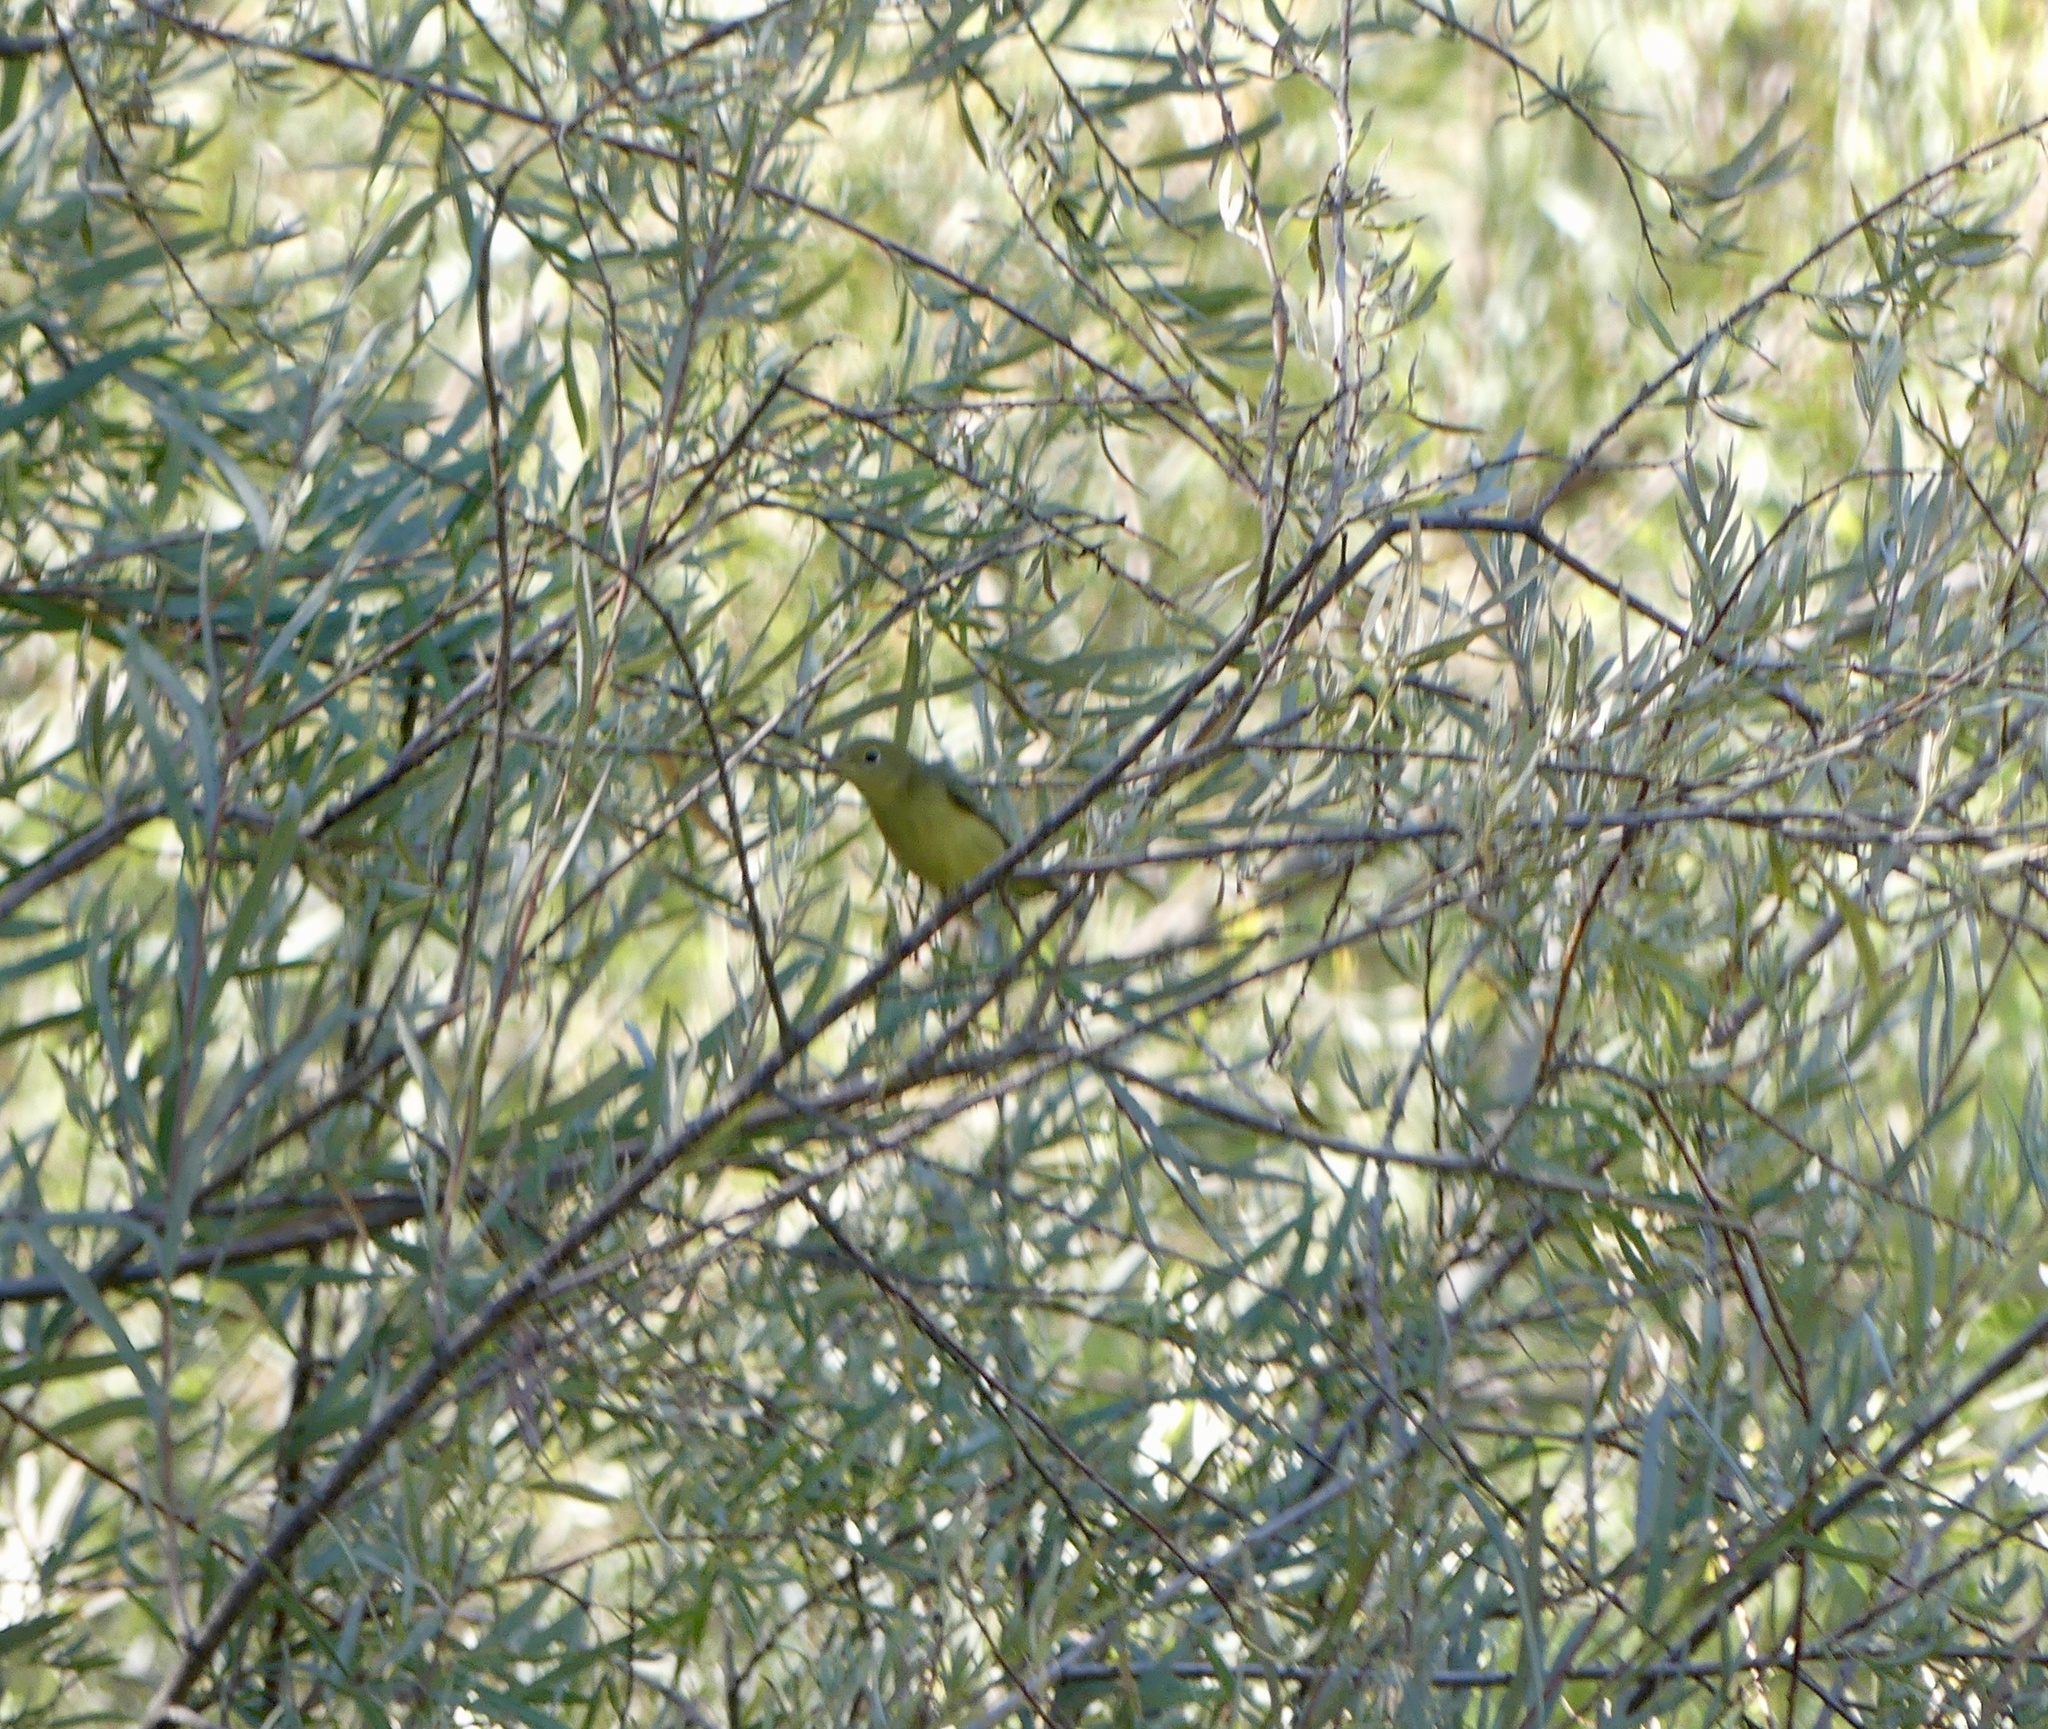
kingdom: Animalia
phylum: Chordata
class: Aves
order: Passeriformes
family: Parulidae
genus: Setophaga
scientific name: Setophaga petechia
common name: Yellow warbler
